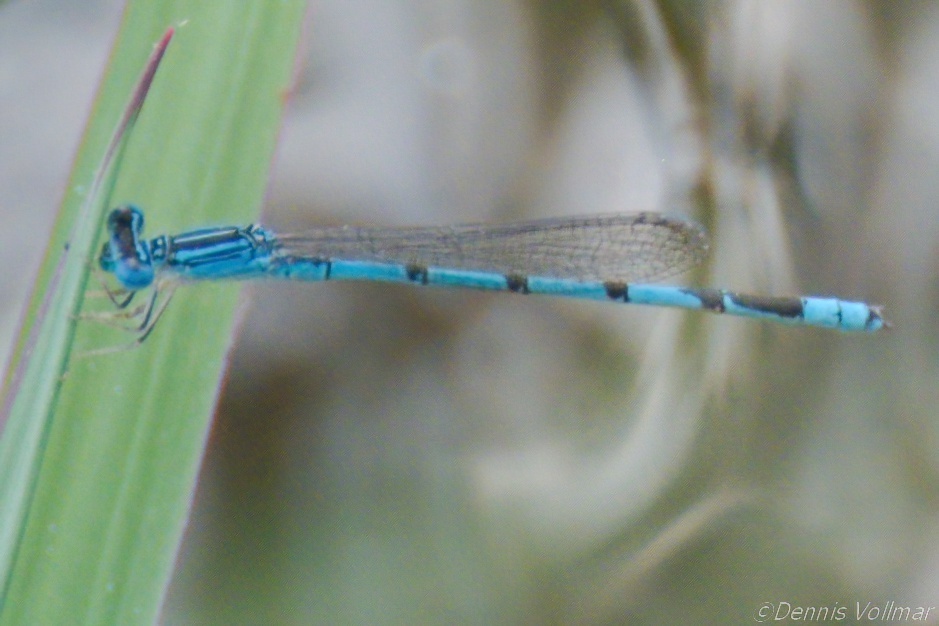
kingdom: Animalia
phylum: Arthropoda
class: Insecta
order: Odonata
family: Coenagrionidae
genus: Enallagma
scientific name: Enallagma basidens
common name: Double-striped bluet
